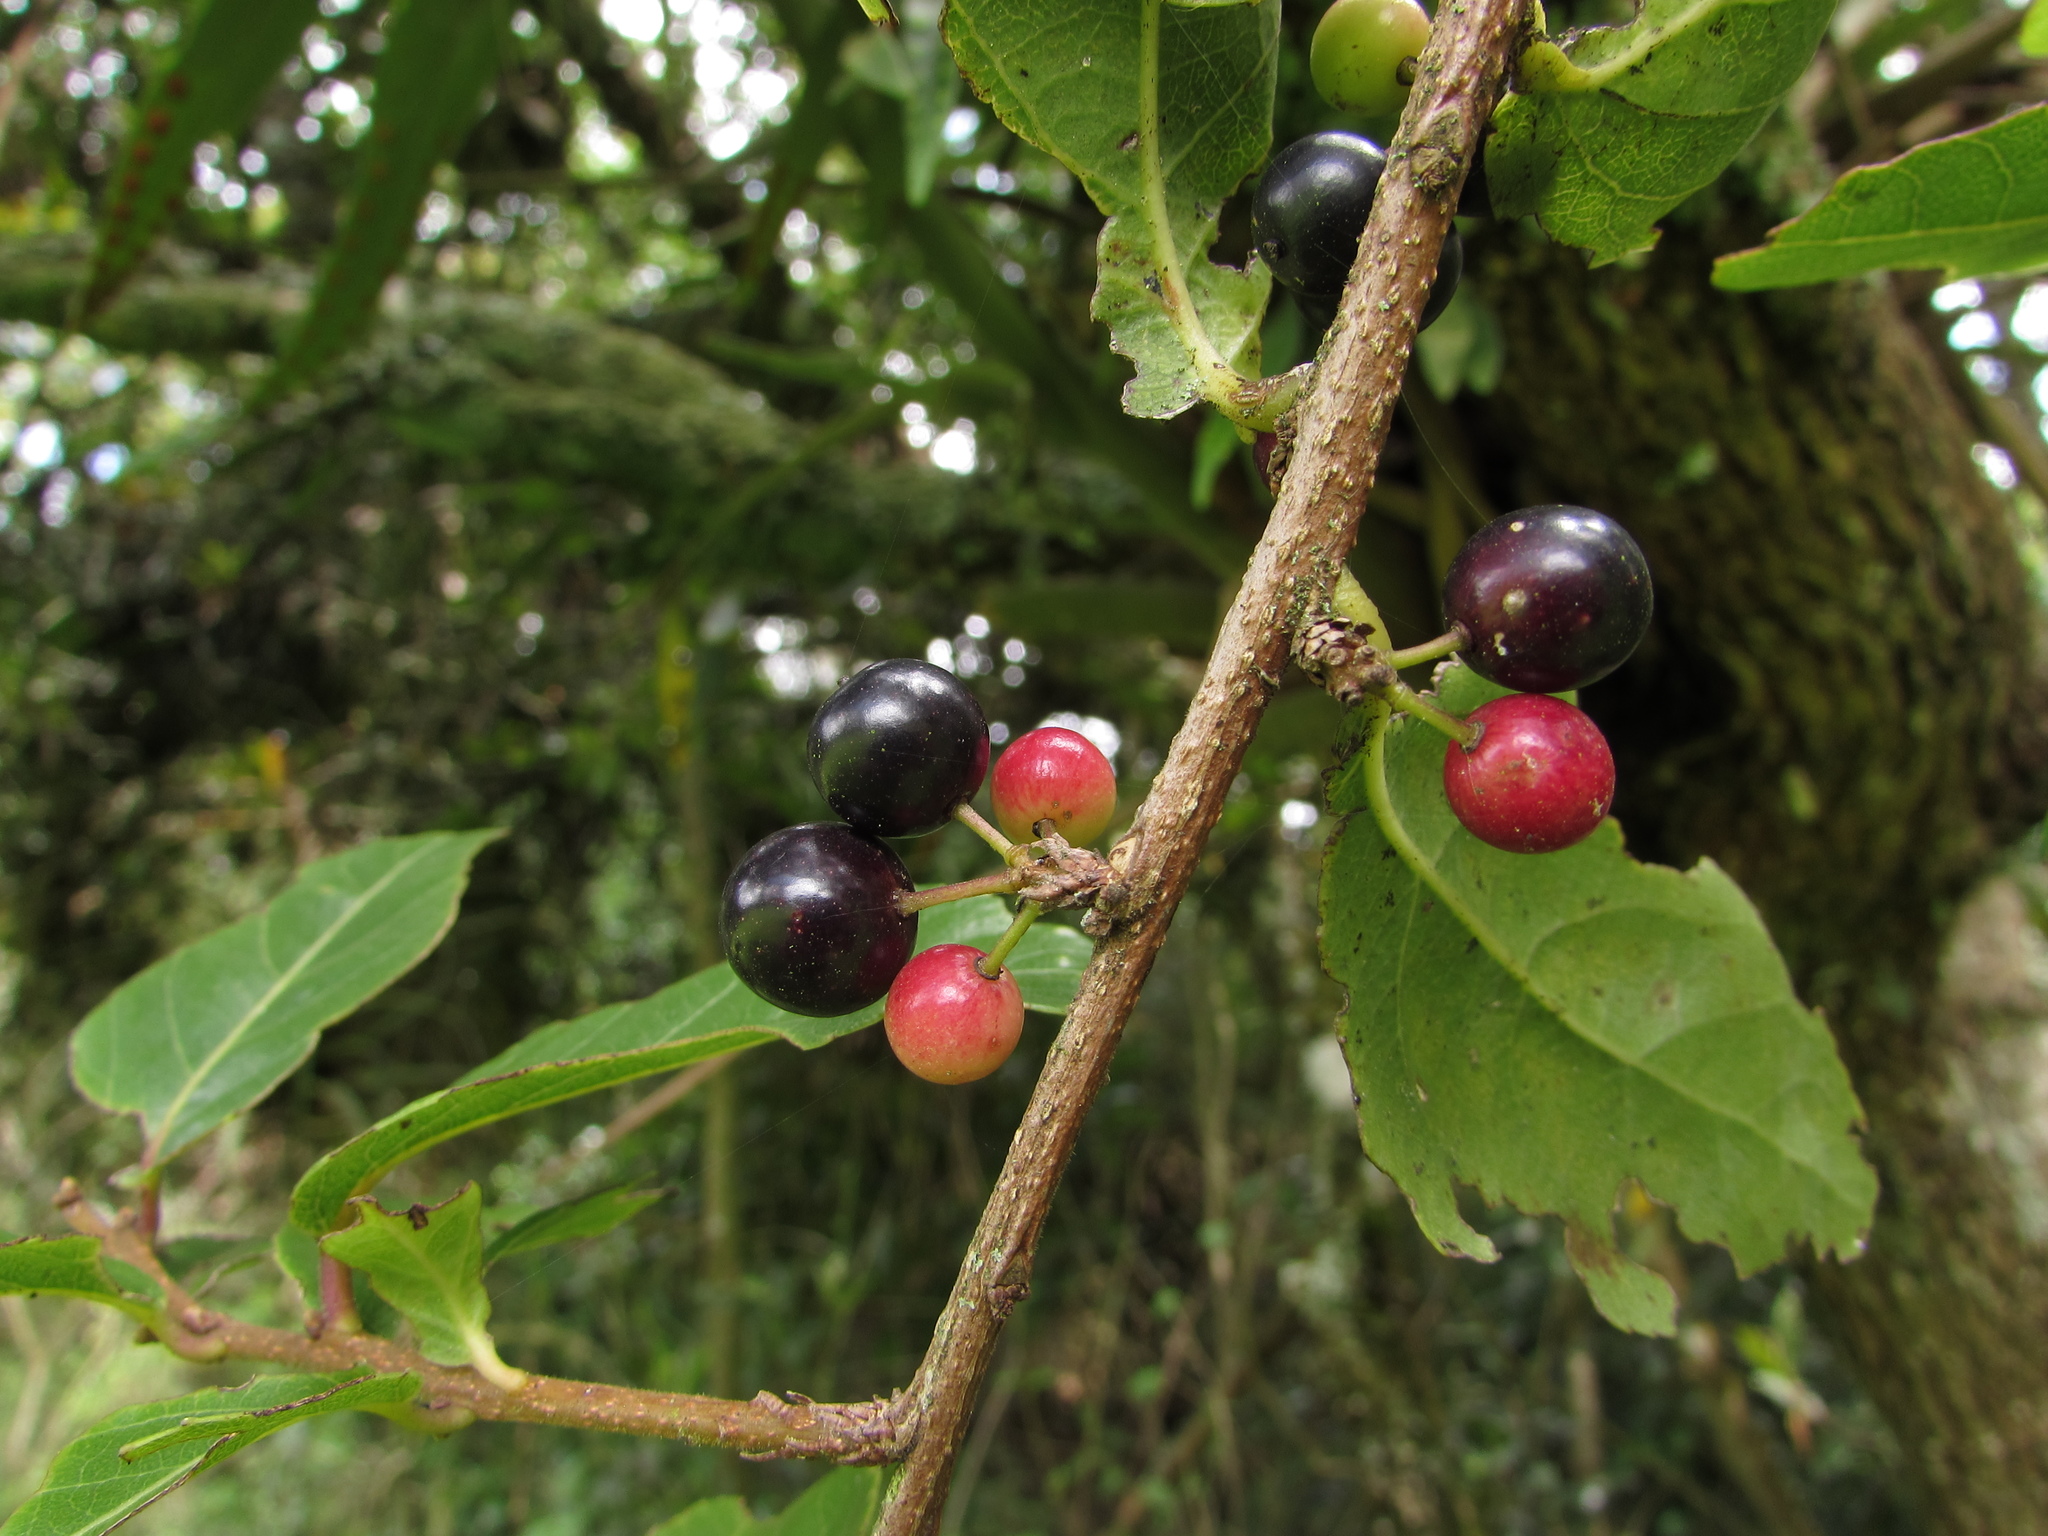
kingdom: Plantae
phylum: Tracheophyta
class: Magnoliopsida
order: Malpighiales
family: Salicaceae
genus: Xylosma
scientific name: Xylosma spiculifera
